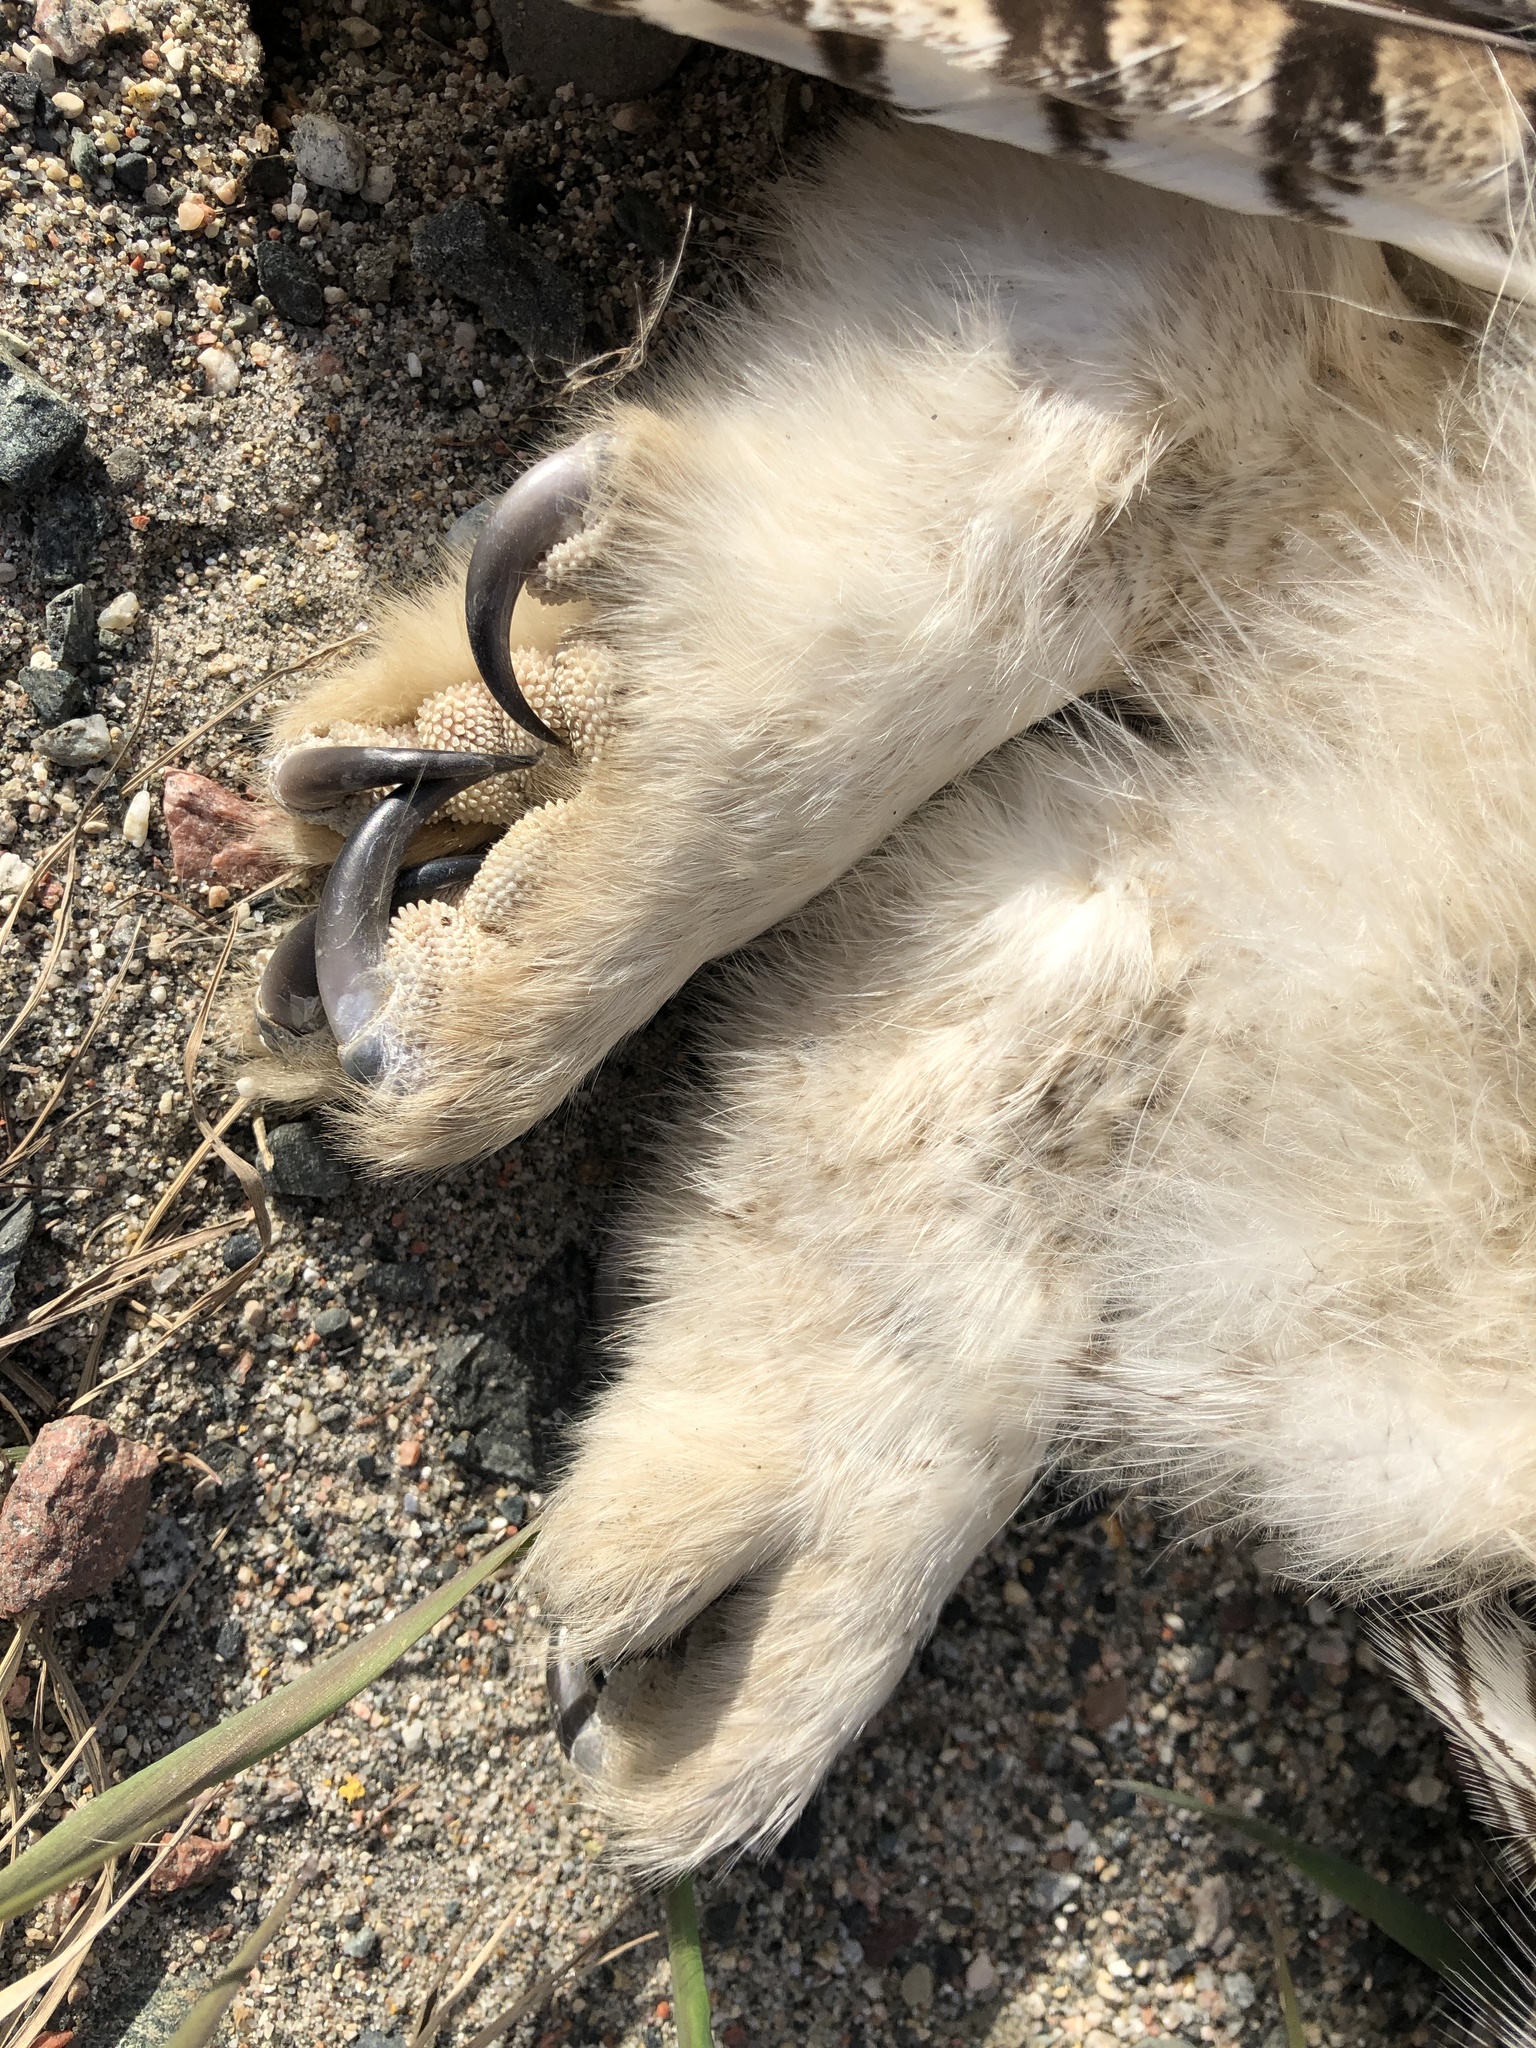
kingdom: Animalia
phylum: Chordata
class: Aves
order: Strigiformes
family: Strigidae
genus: Bubo
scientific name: Bubo virginianus
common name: Great horned owl
